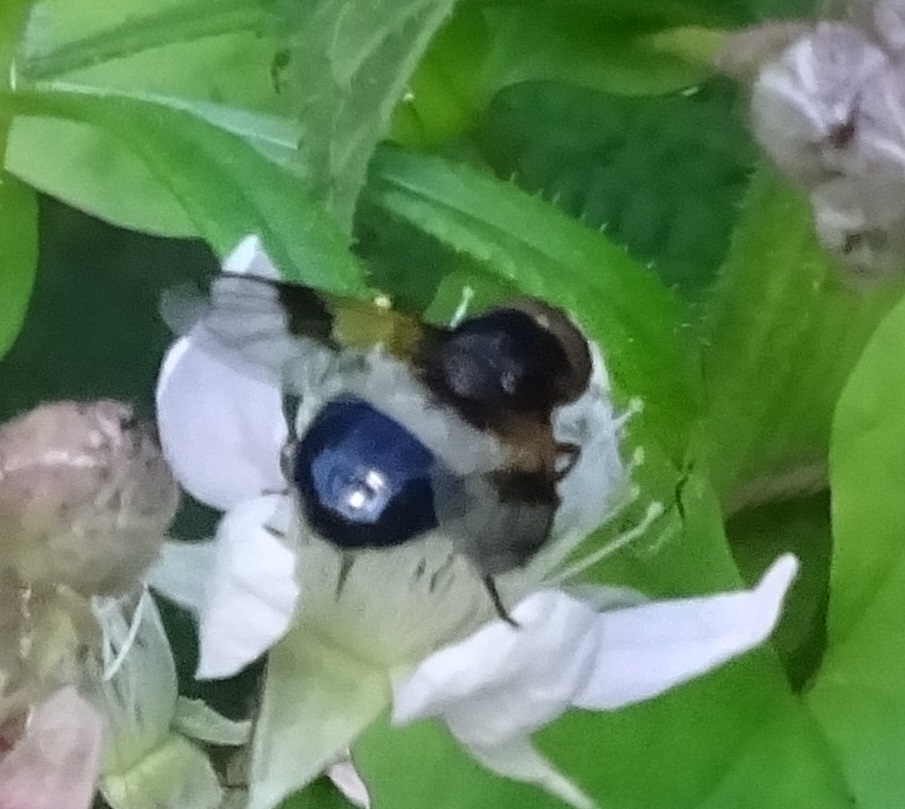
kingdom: Animalia
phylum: Arthropoda
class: Insecta
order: Diptera
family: Syrphidae
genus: Volucella
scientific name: Volucella pellucens
